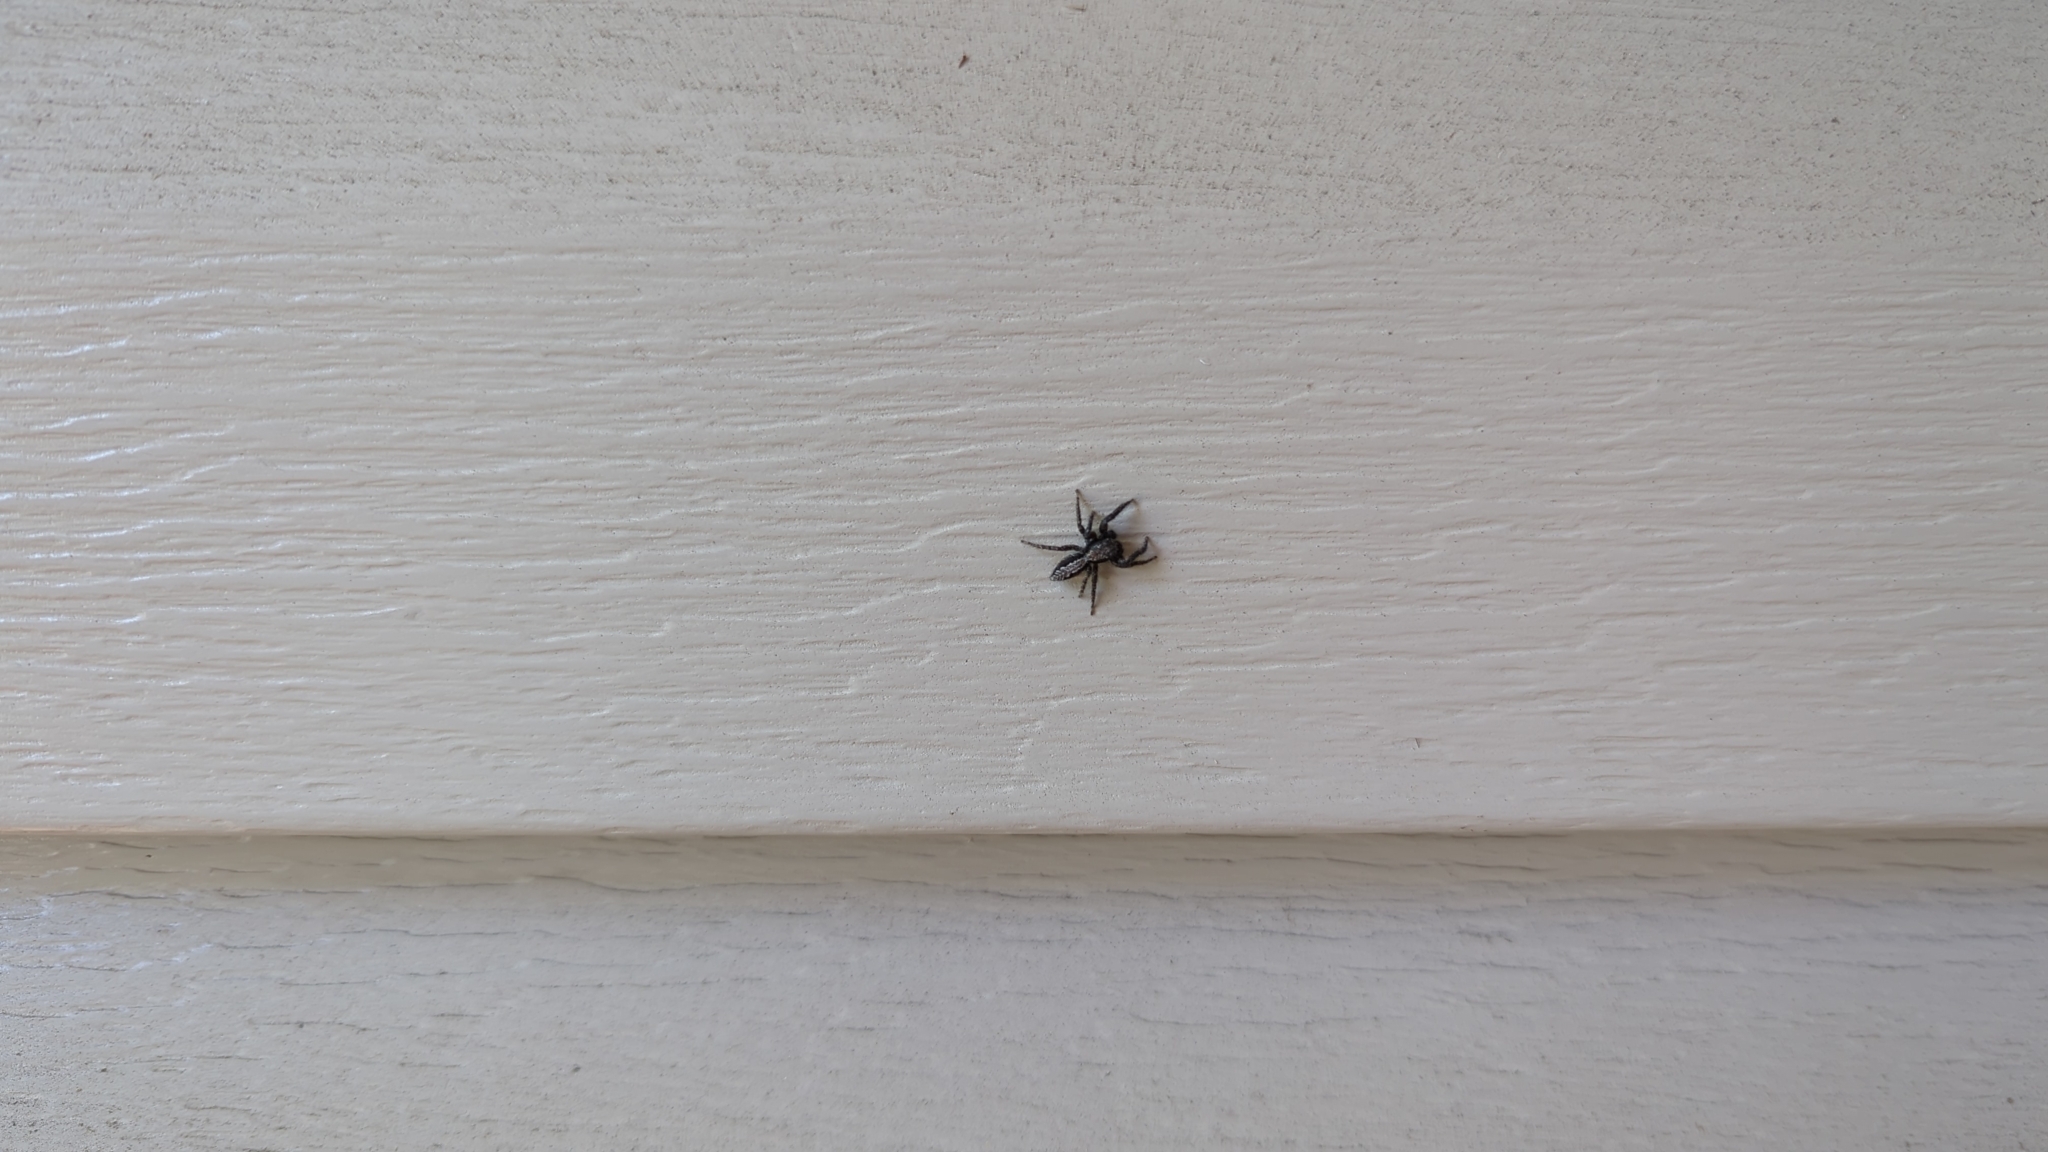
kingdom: Animalia
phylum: Arthropoda
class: Arachnida
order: Araneae
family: Salticidae
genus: Platycryptus
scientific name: Platycryptus californicus
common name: Jumping spiders
